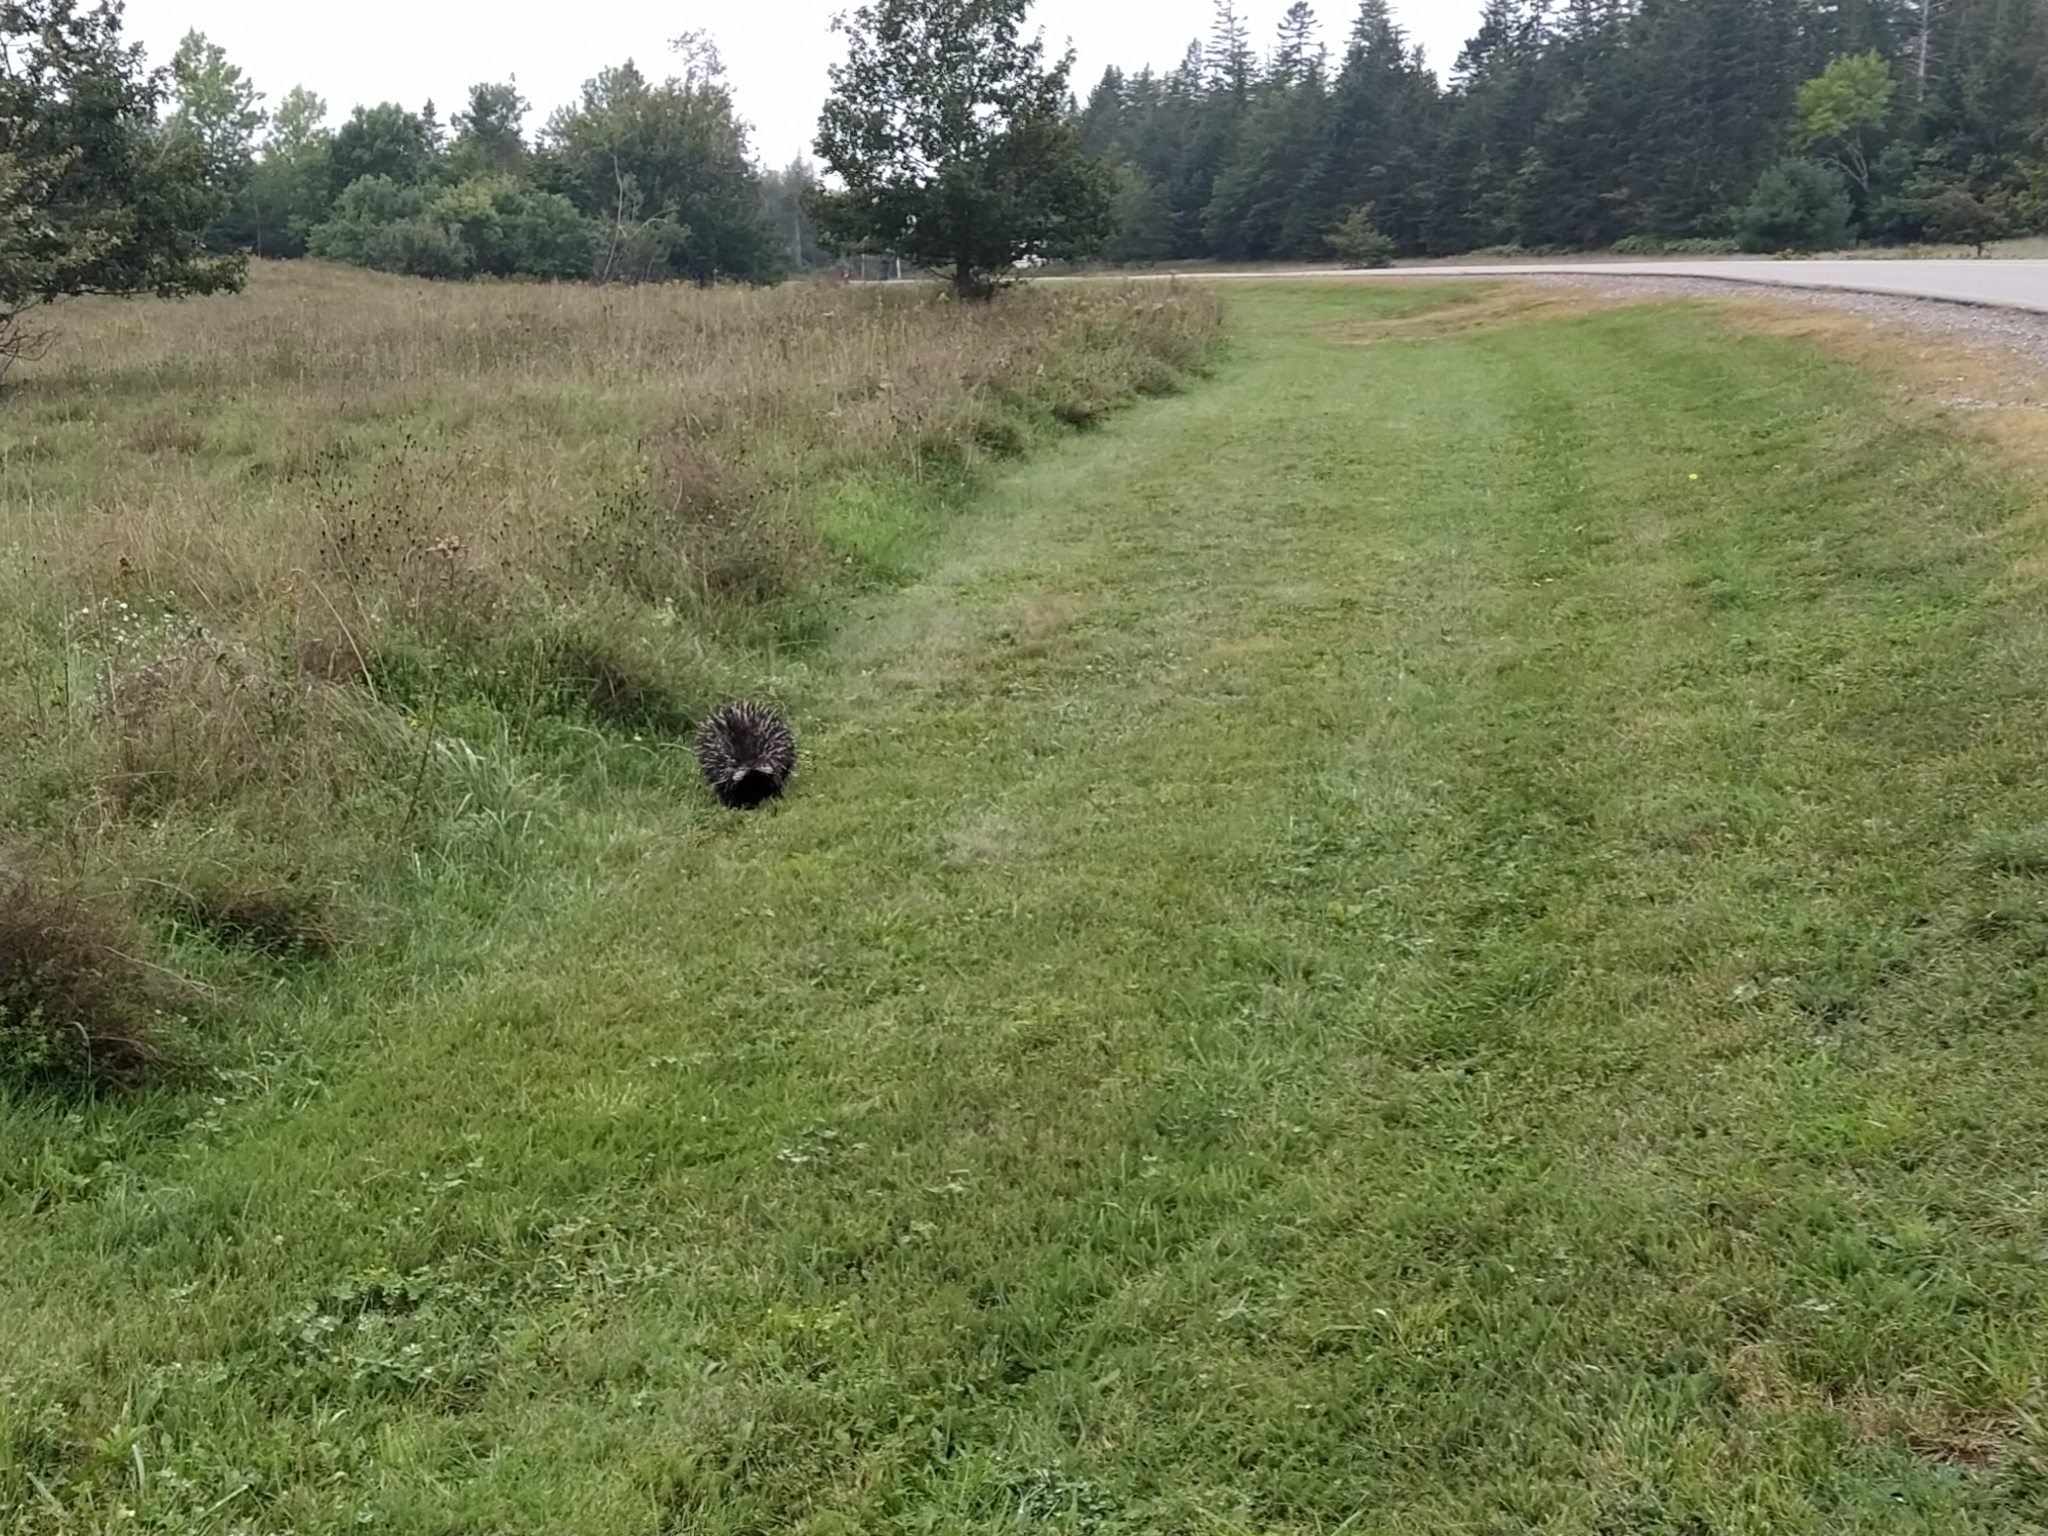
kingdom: Animalia
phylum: Chordata
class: Mammalia
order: Rodentia
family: Erethizontidae
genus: Erethizon
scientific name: Erethizon dorsatus
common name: North american porcupine
